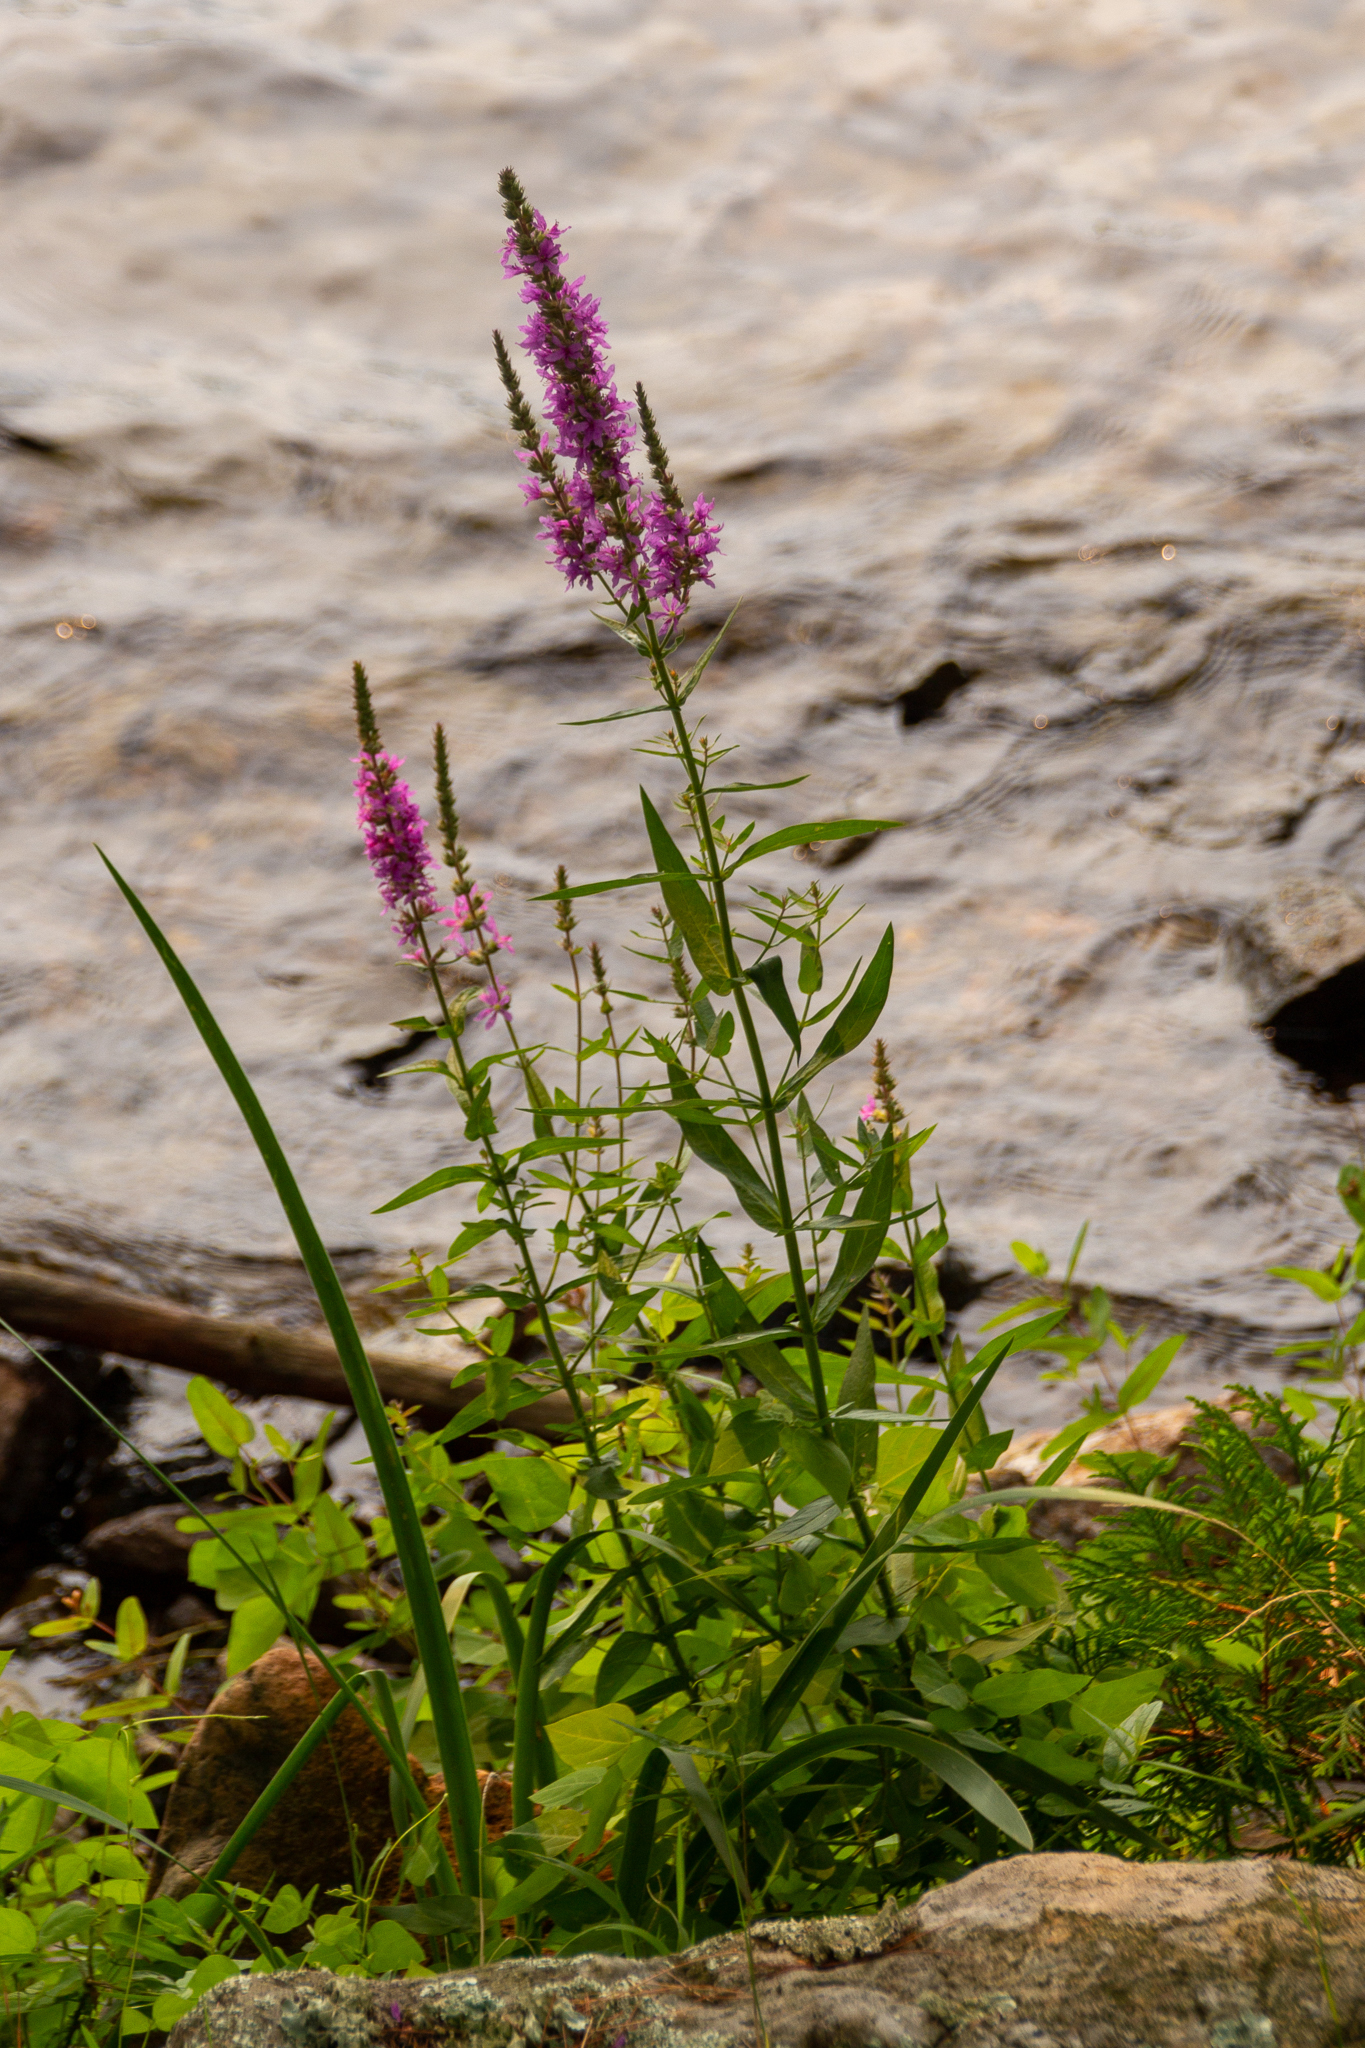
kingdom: Plantae
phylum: Tracheophyta
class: Magnoliopsida
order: Myrtales
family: Lythraceae
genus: Lythrum
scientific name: Lythrum salicaria
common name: Purple loosestrife
